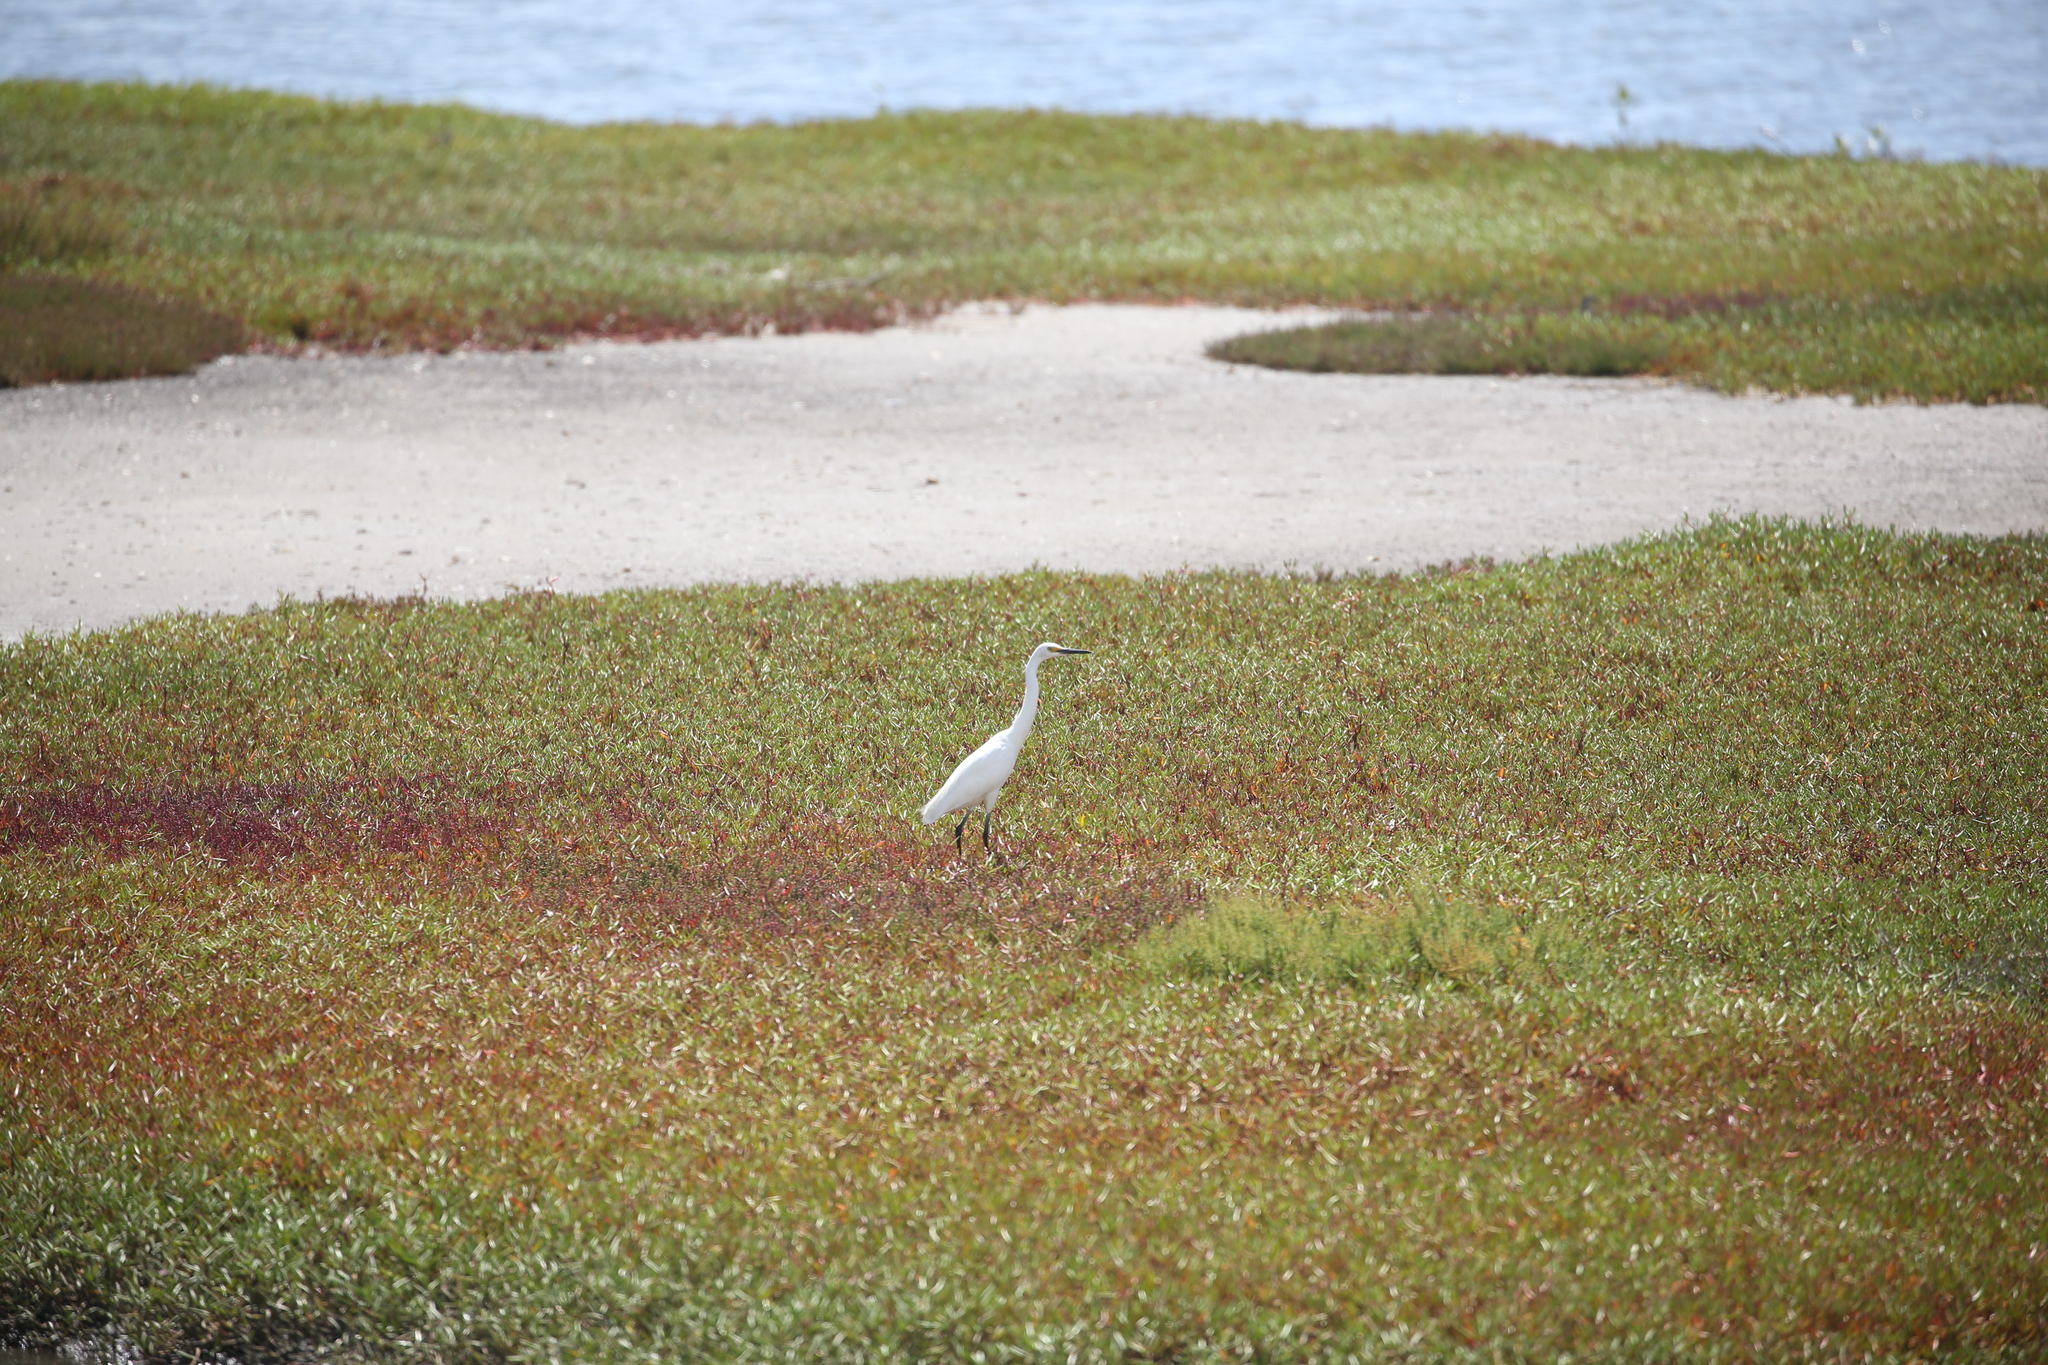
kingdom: Animalia
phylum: Chordata
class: Aves
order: Pelecaniformes
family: Ardeidae
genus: Egretta
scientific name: Egretta garzetta
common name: Little egret
